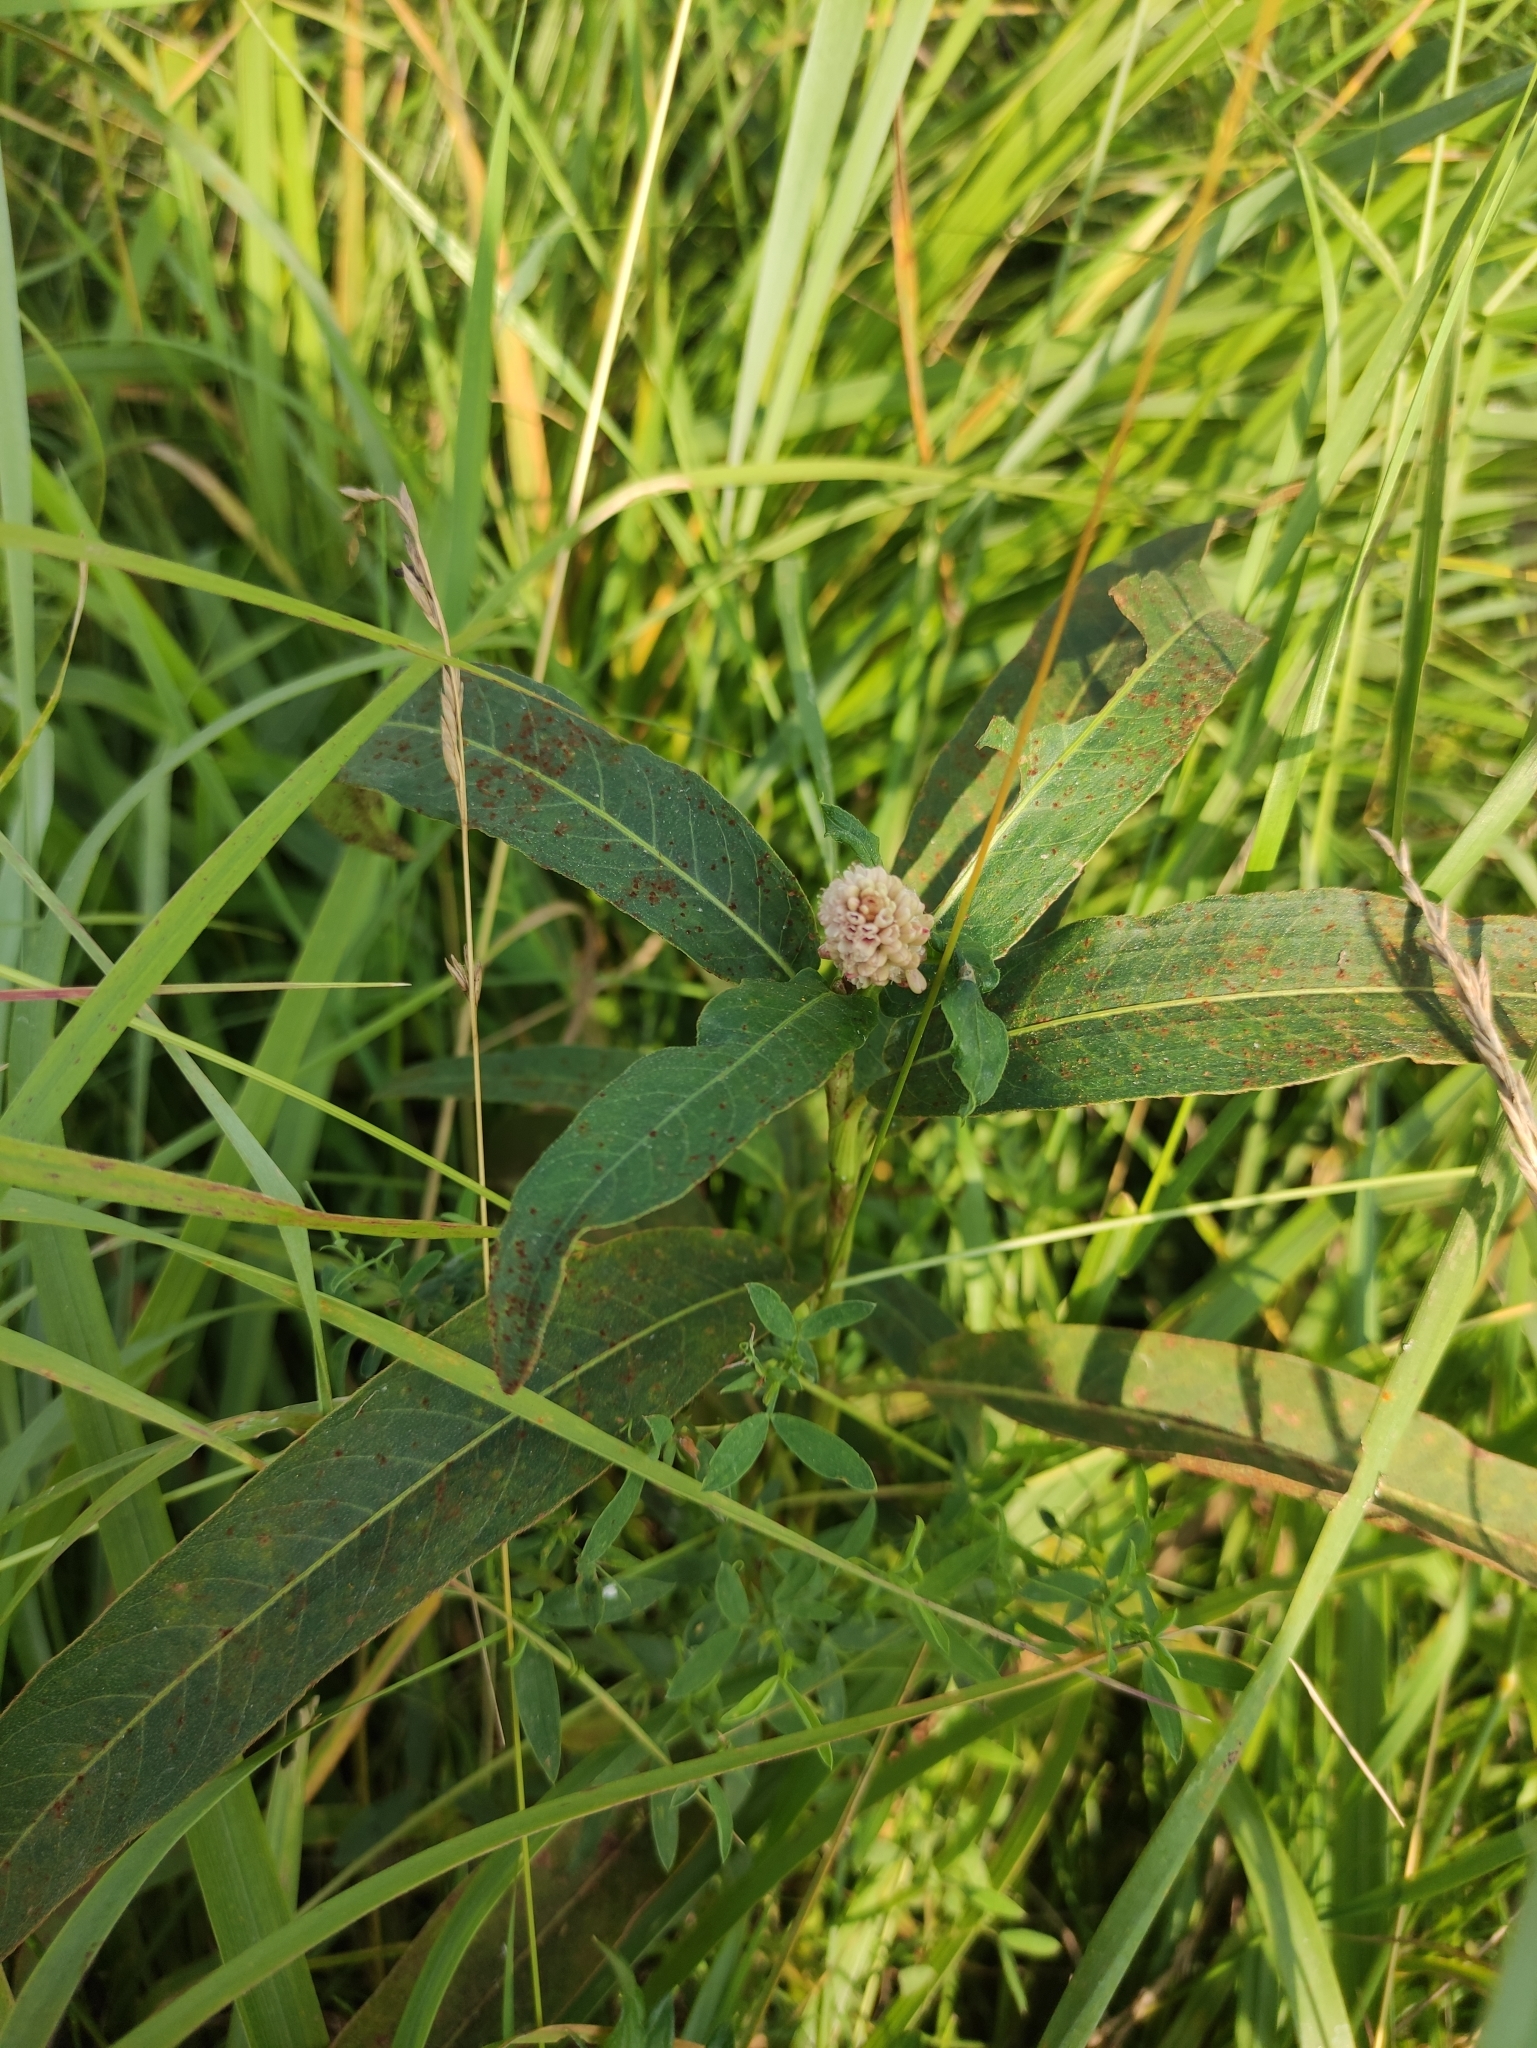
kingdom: Plantae
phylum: Tracheophyta
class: Magnoliopsida
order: Caryophyllales
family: Polygonaceae
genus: Persicaria
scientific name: Persicaria amphibia
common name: Amphibious bistort
